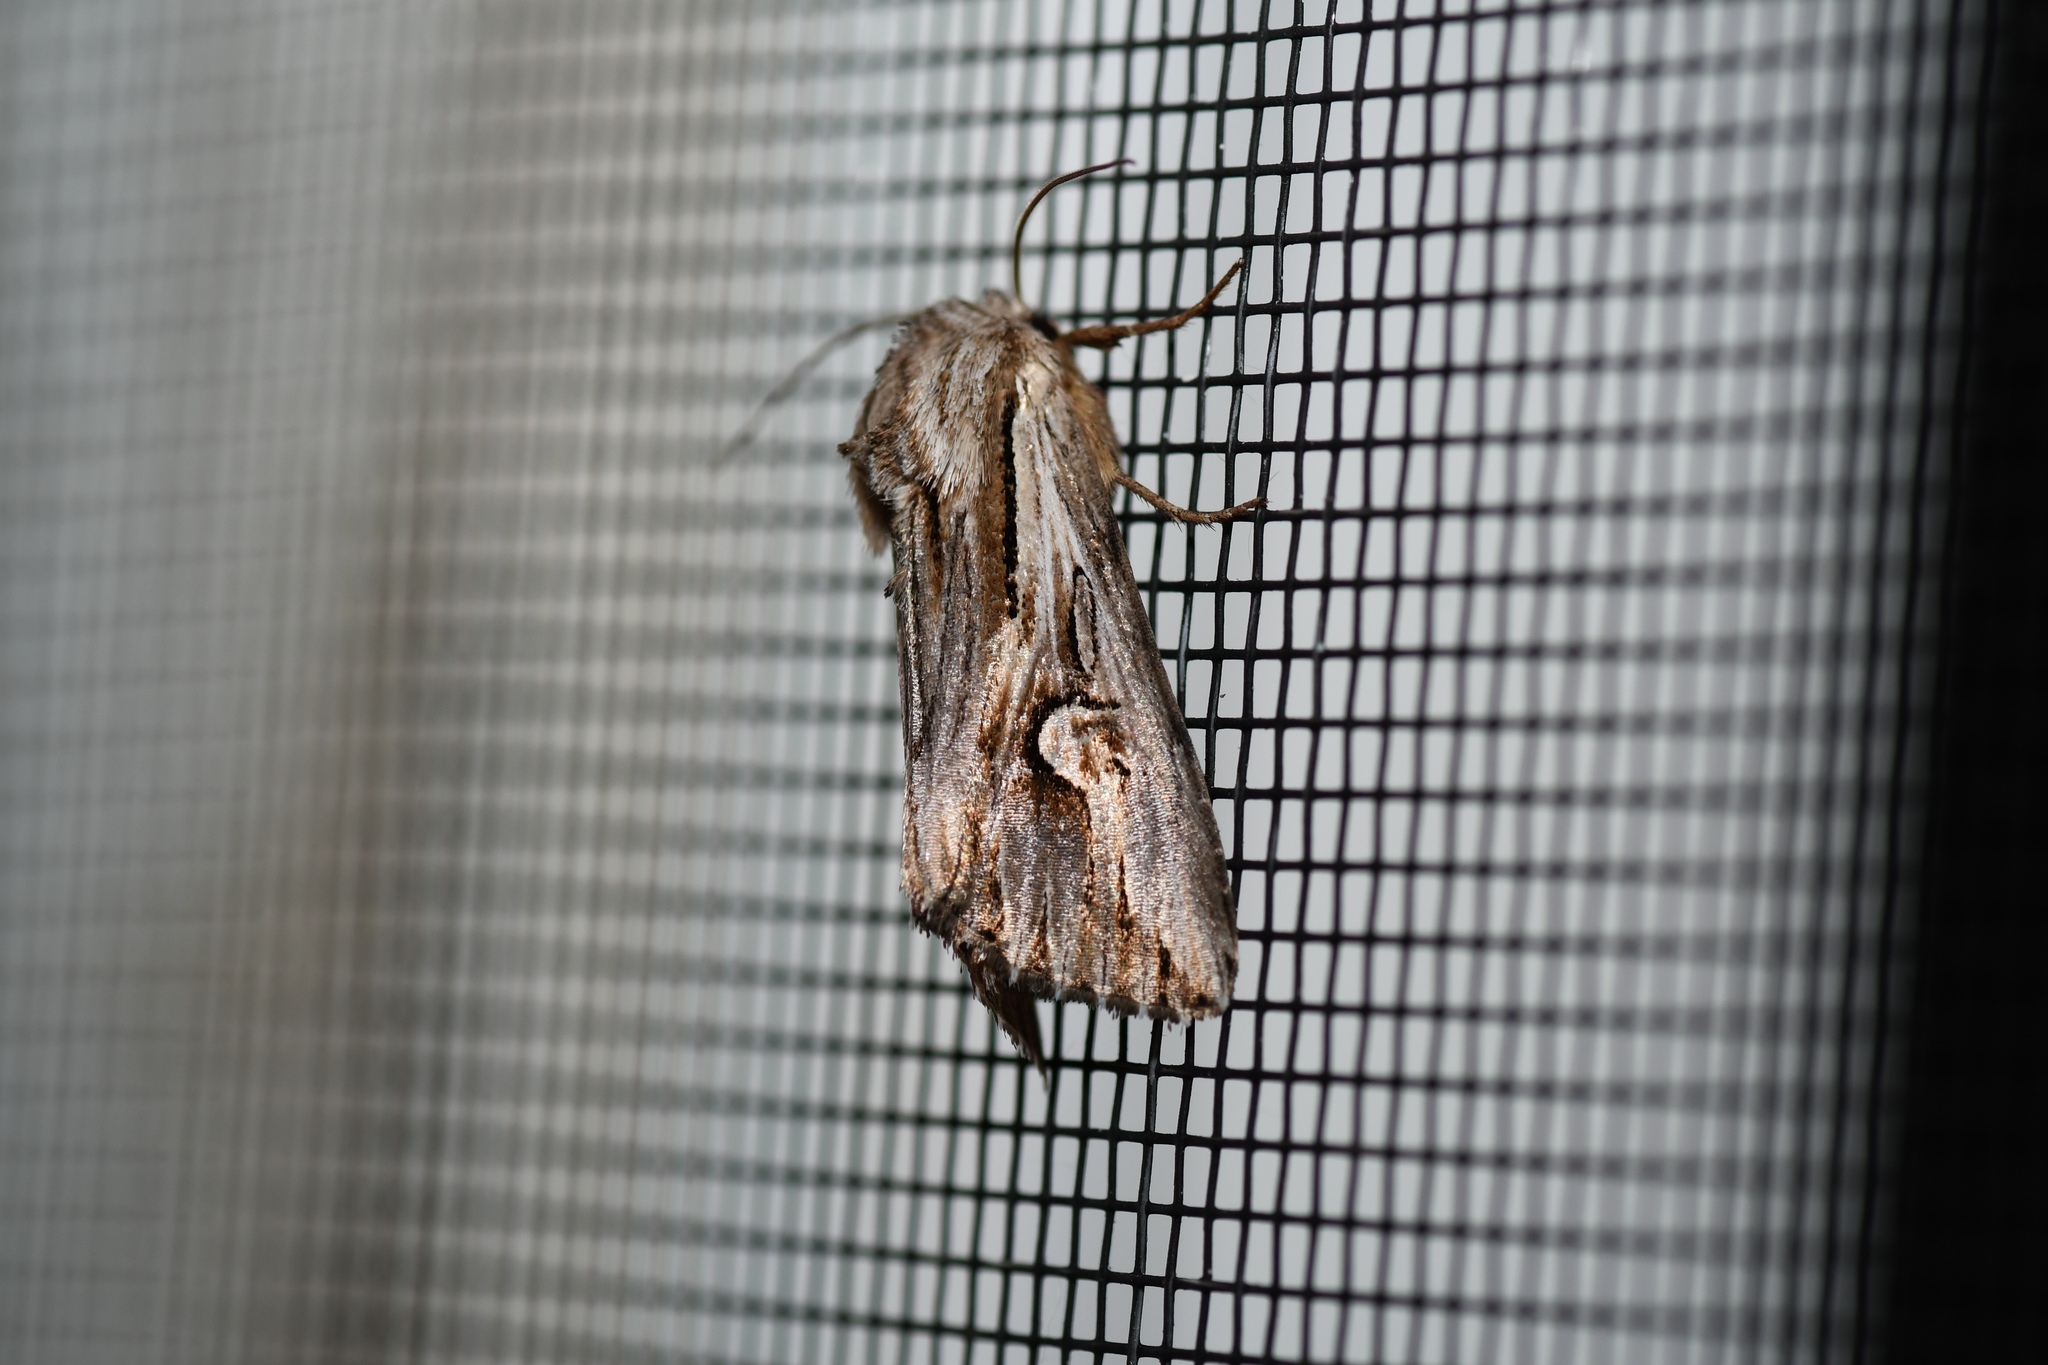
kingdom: Animalia
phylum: Arthropoda
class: Insecta
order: Lepidoptera
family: Noctuidae
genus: Nedra
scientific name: Nedra ramosula
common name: Gray half-spot
